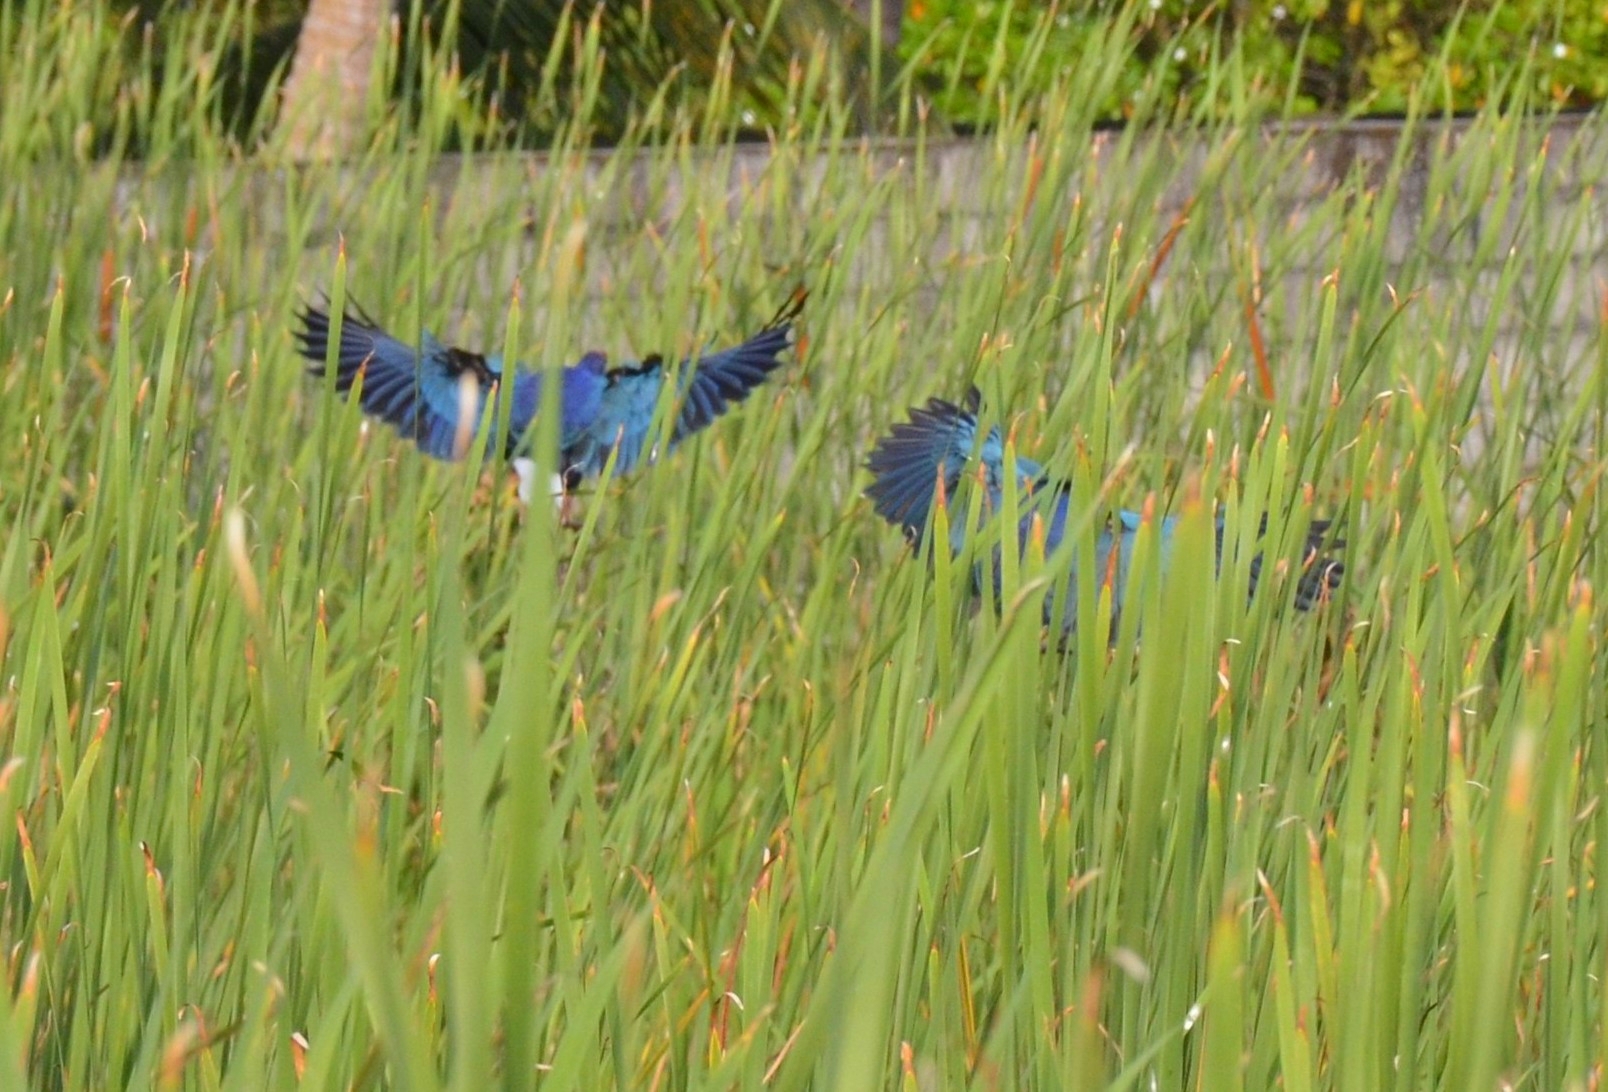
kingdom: Animalia
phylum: Chordata
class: Aves
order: Gruiformes
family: Rallidae
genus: Porphyrio
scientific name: Porphyrio porphyrio
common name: Purple swamphen
